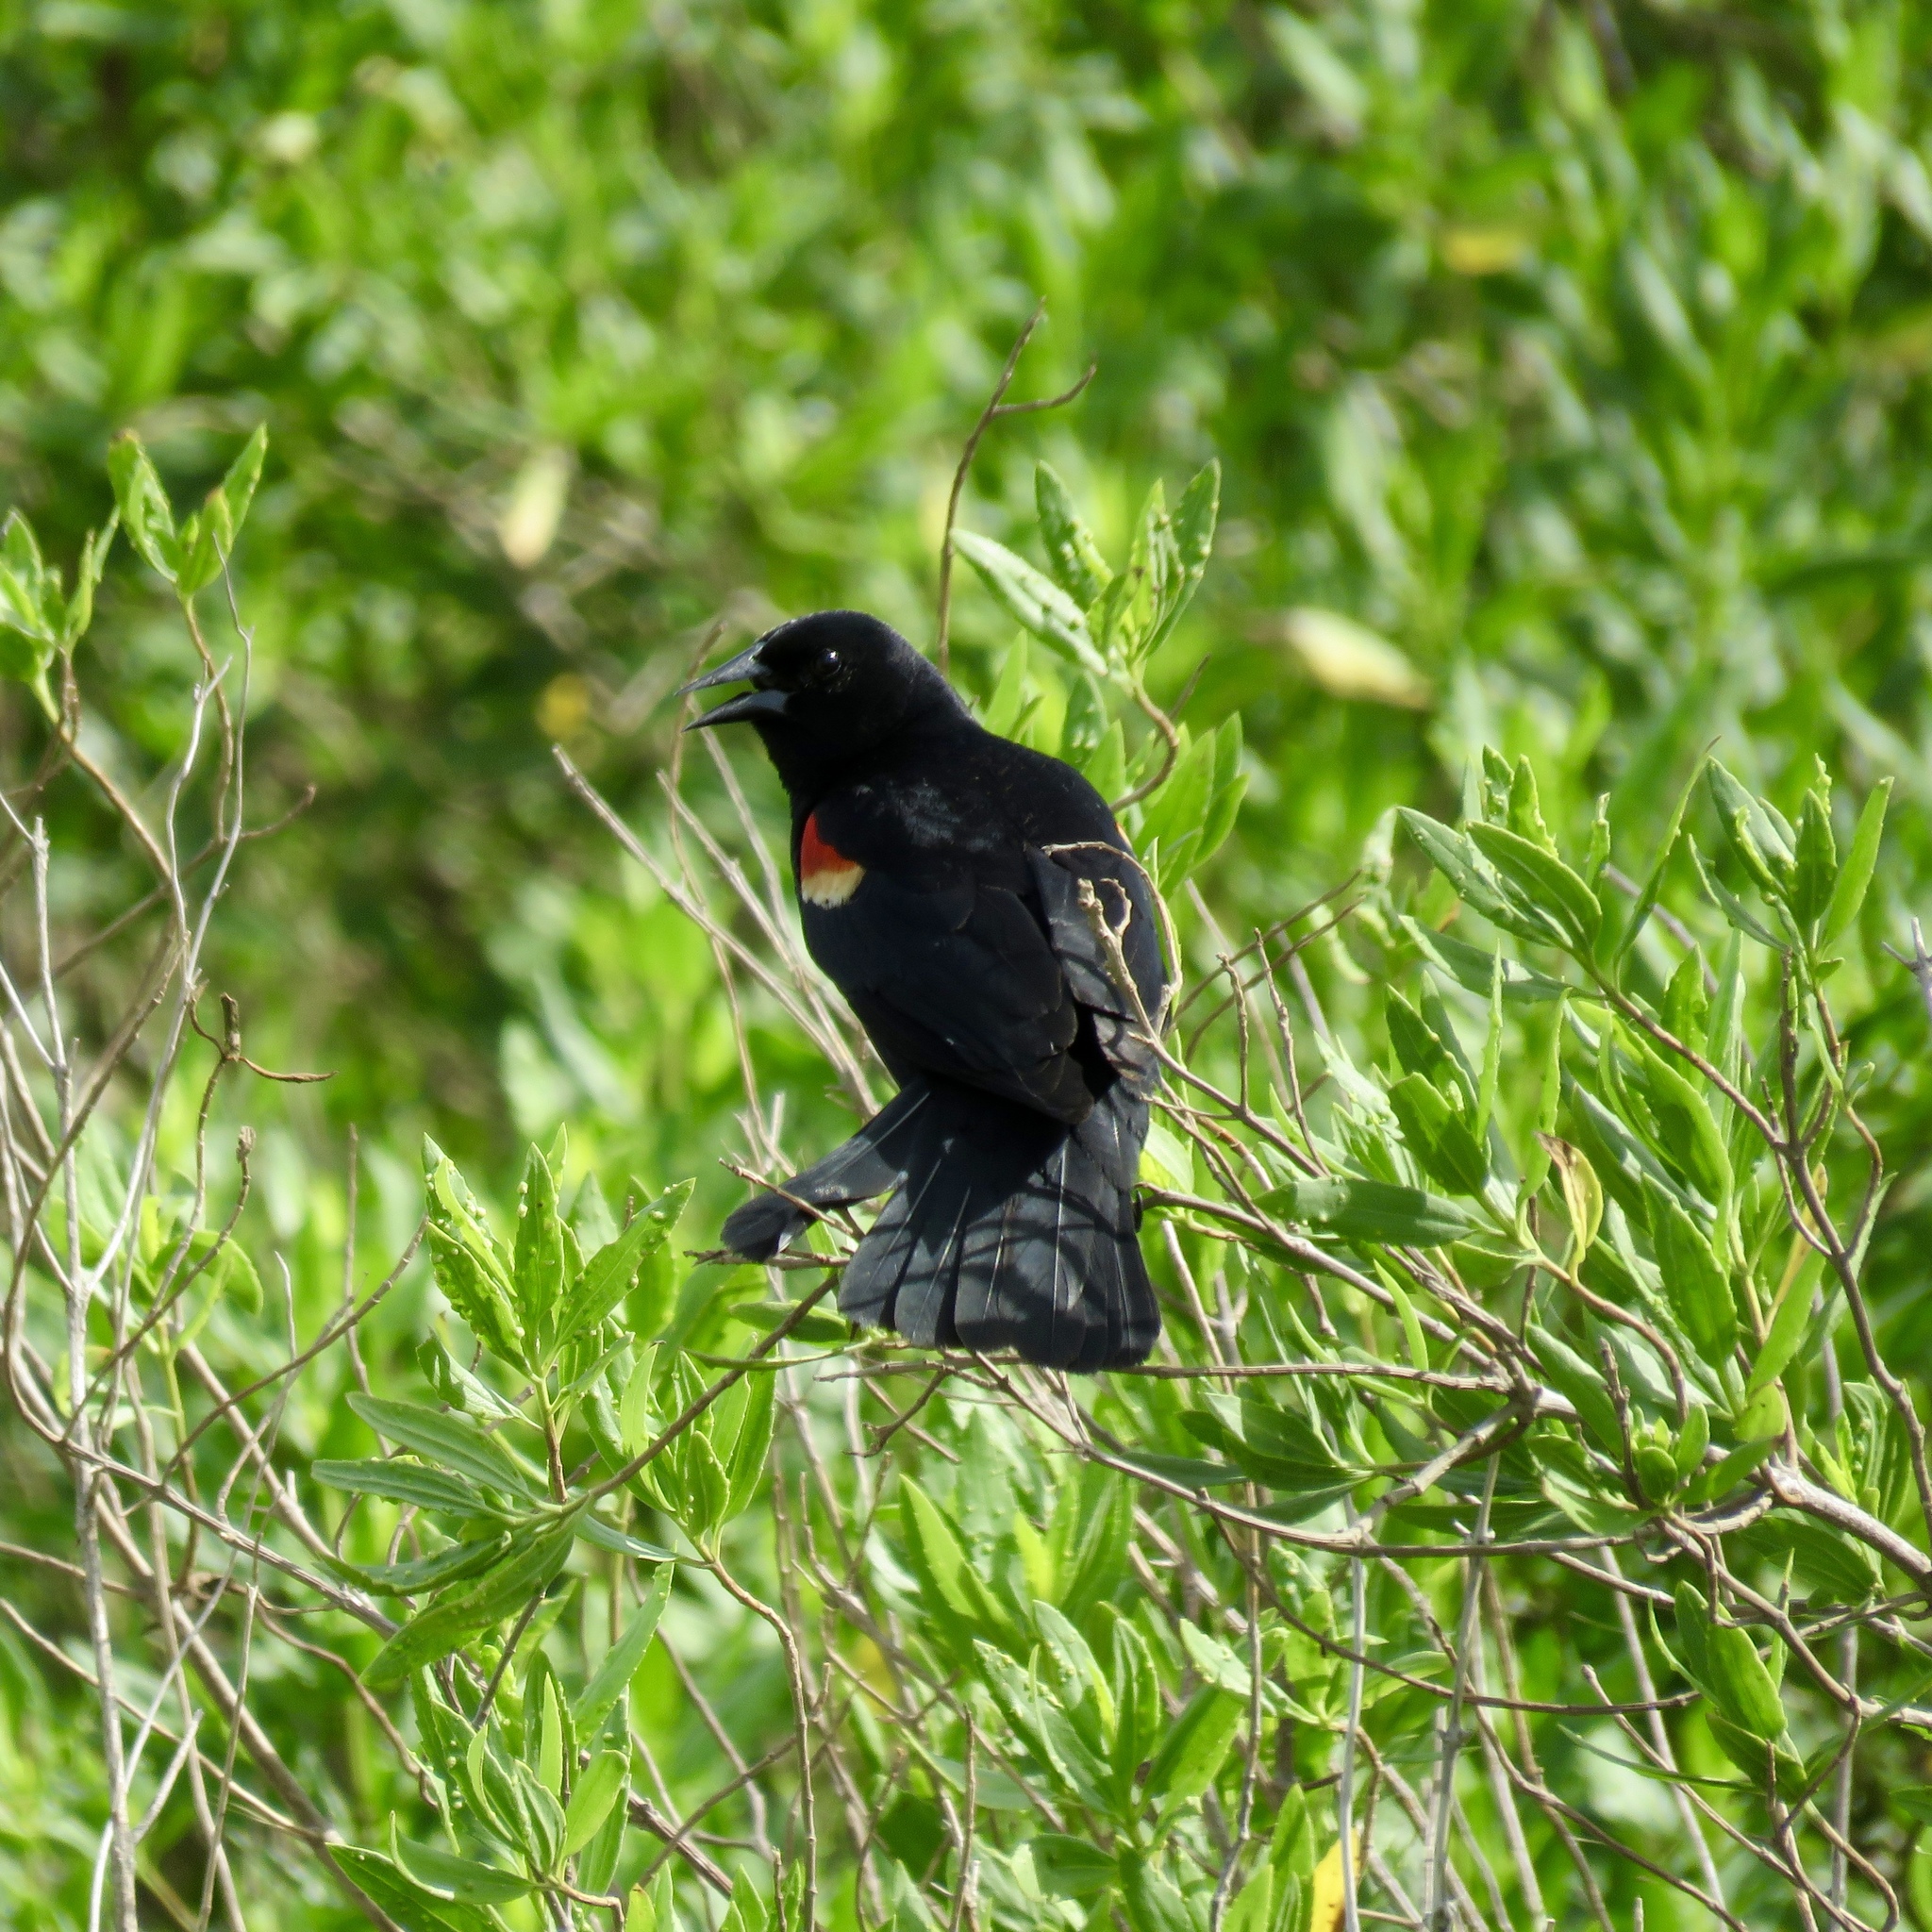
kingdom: Animalia
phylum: Chordata
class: Aves
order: Passeriformes
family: Icteridae
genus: Agelaius
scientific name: Agelaius phoeniceus
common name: Red-winged blackbird
